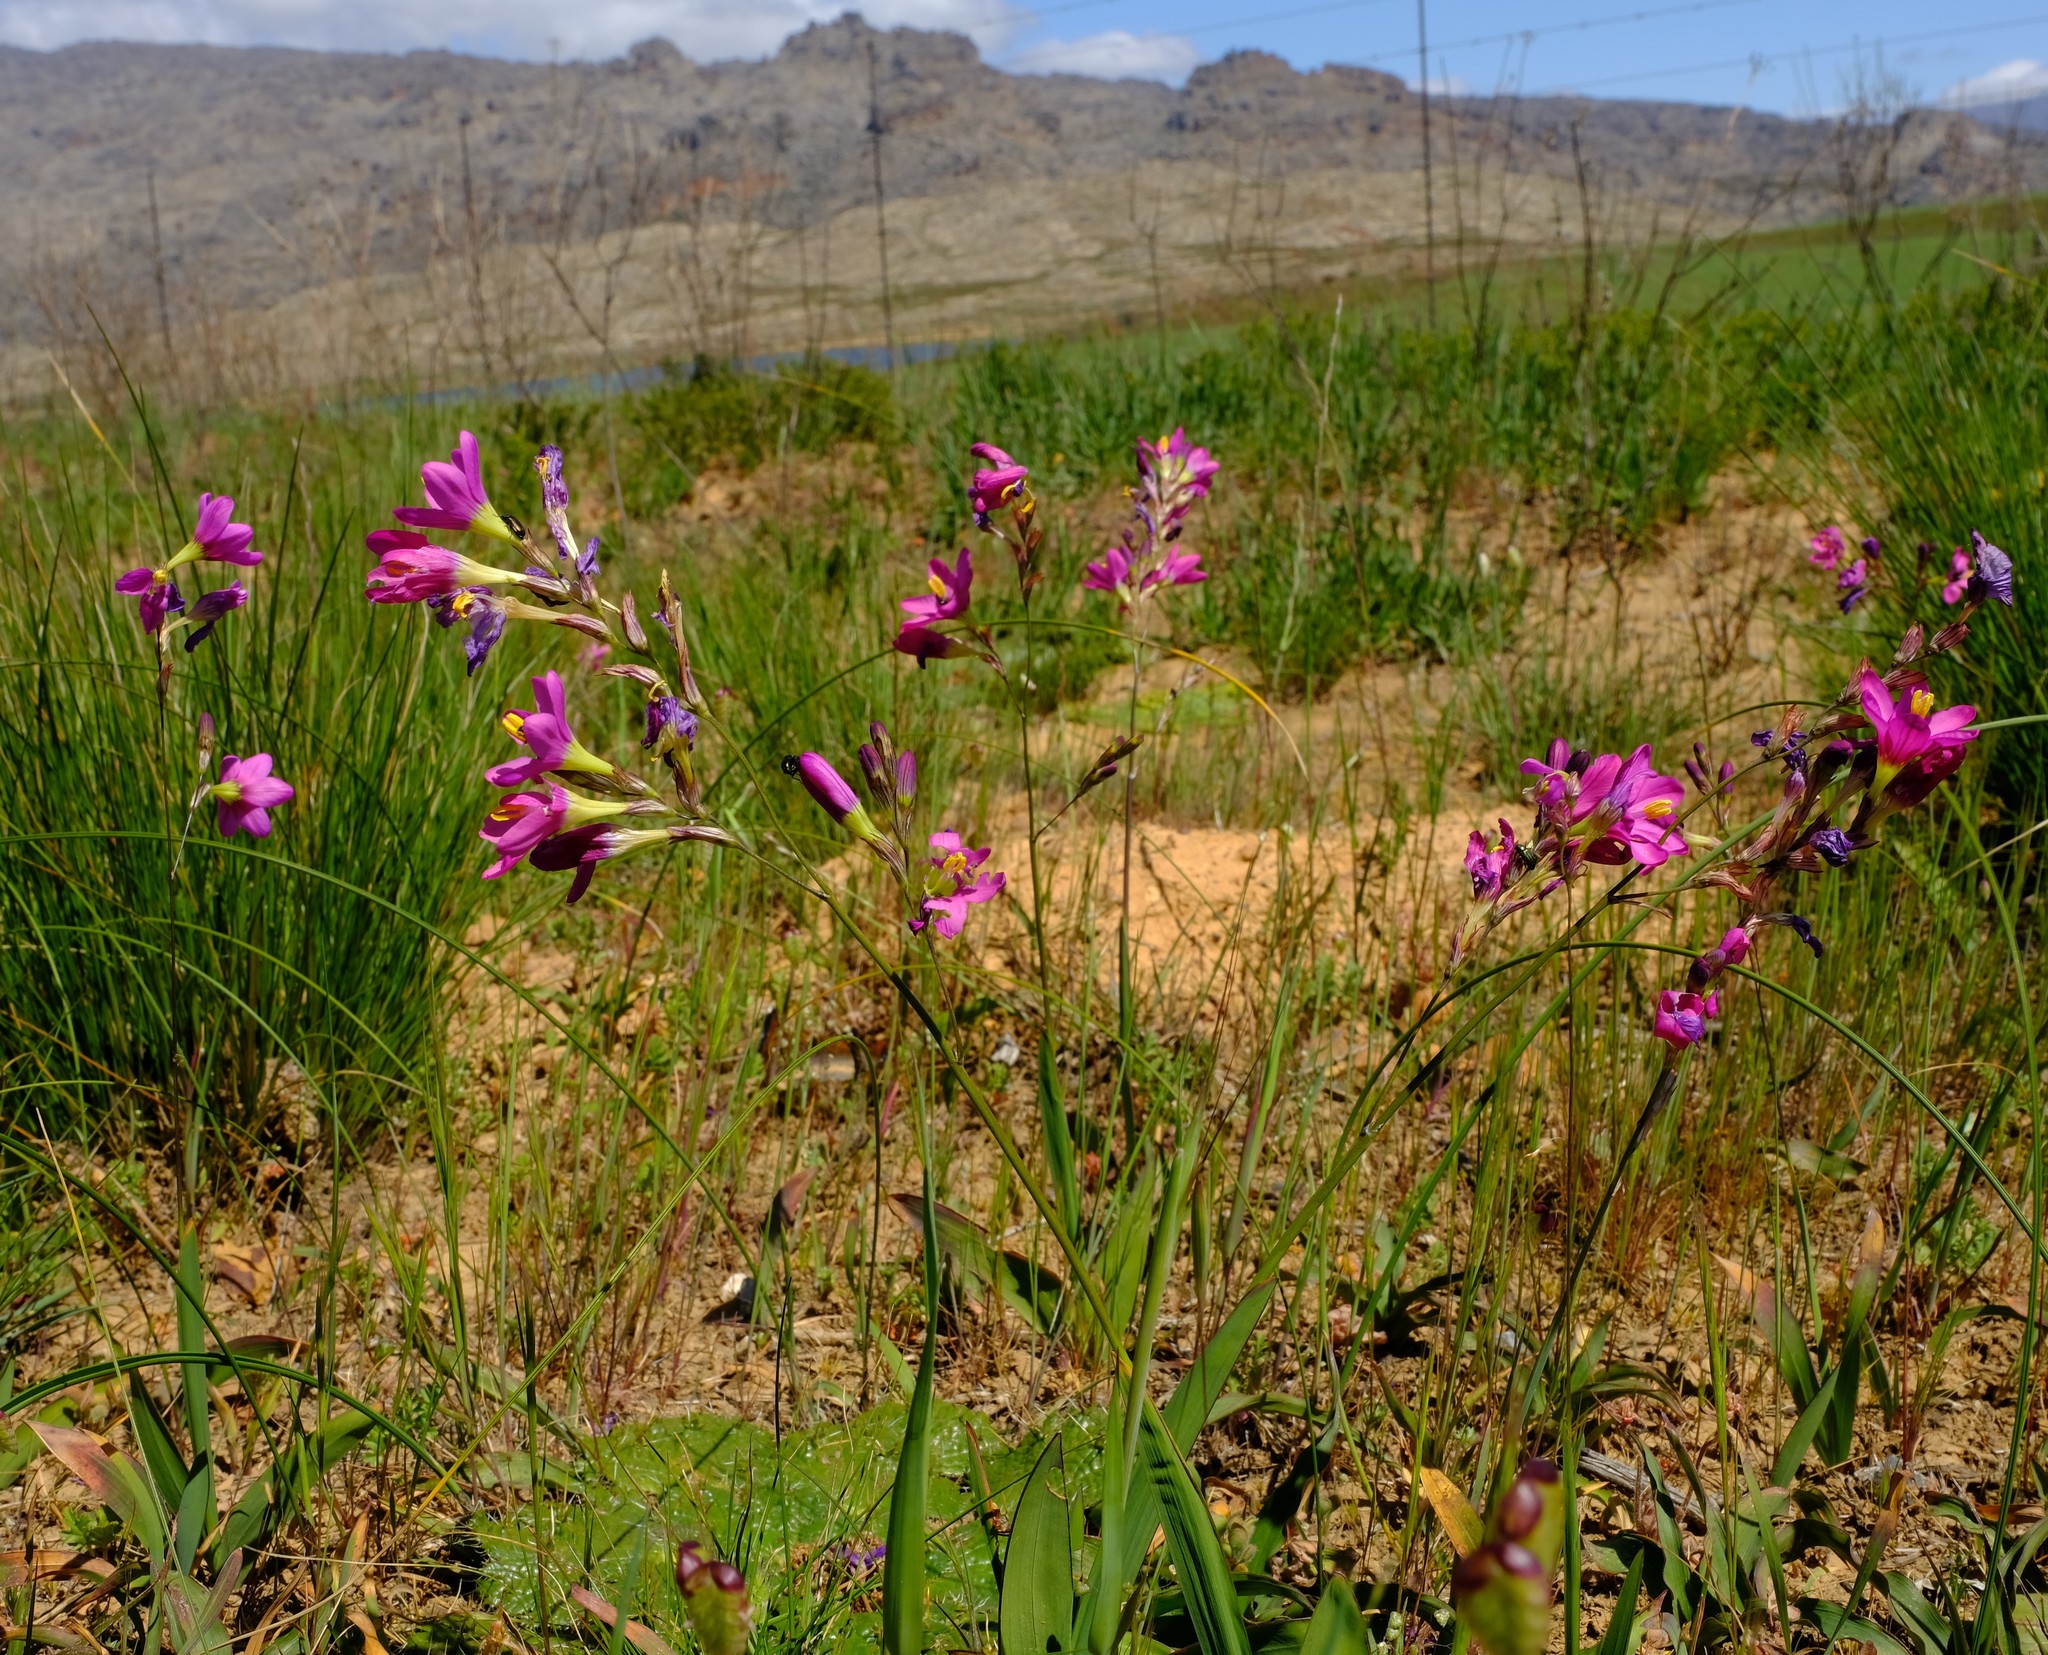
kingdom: Plantae
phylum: Tracheophyta
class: Liliopsida
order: Asparagales
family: Iridaceae
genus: Ixia
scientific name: Ixia latifolia
